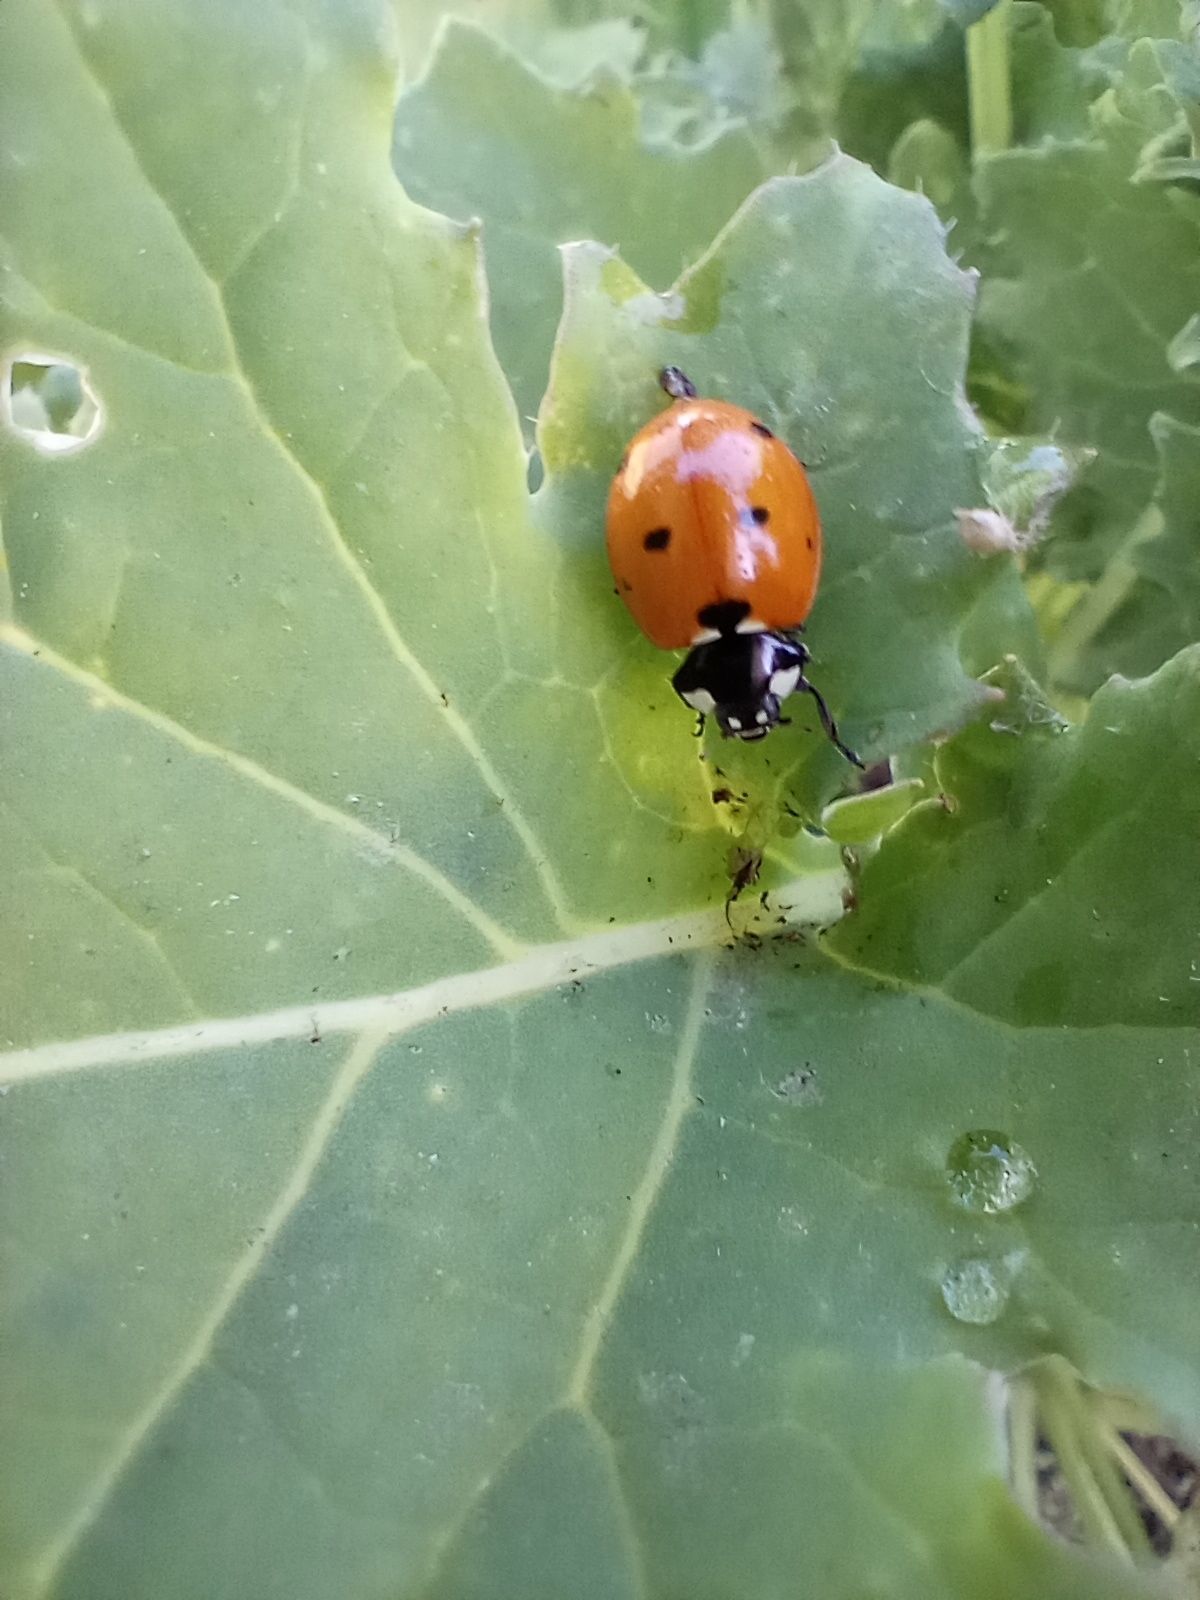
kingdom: Animalia
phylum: Arthropoda
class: Insecta
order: Coleoptera
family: Coccinellidae
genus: Coccinella
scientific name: Coccinella septempunctata
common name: Sevenspotted lady beetle
